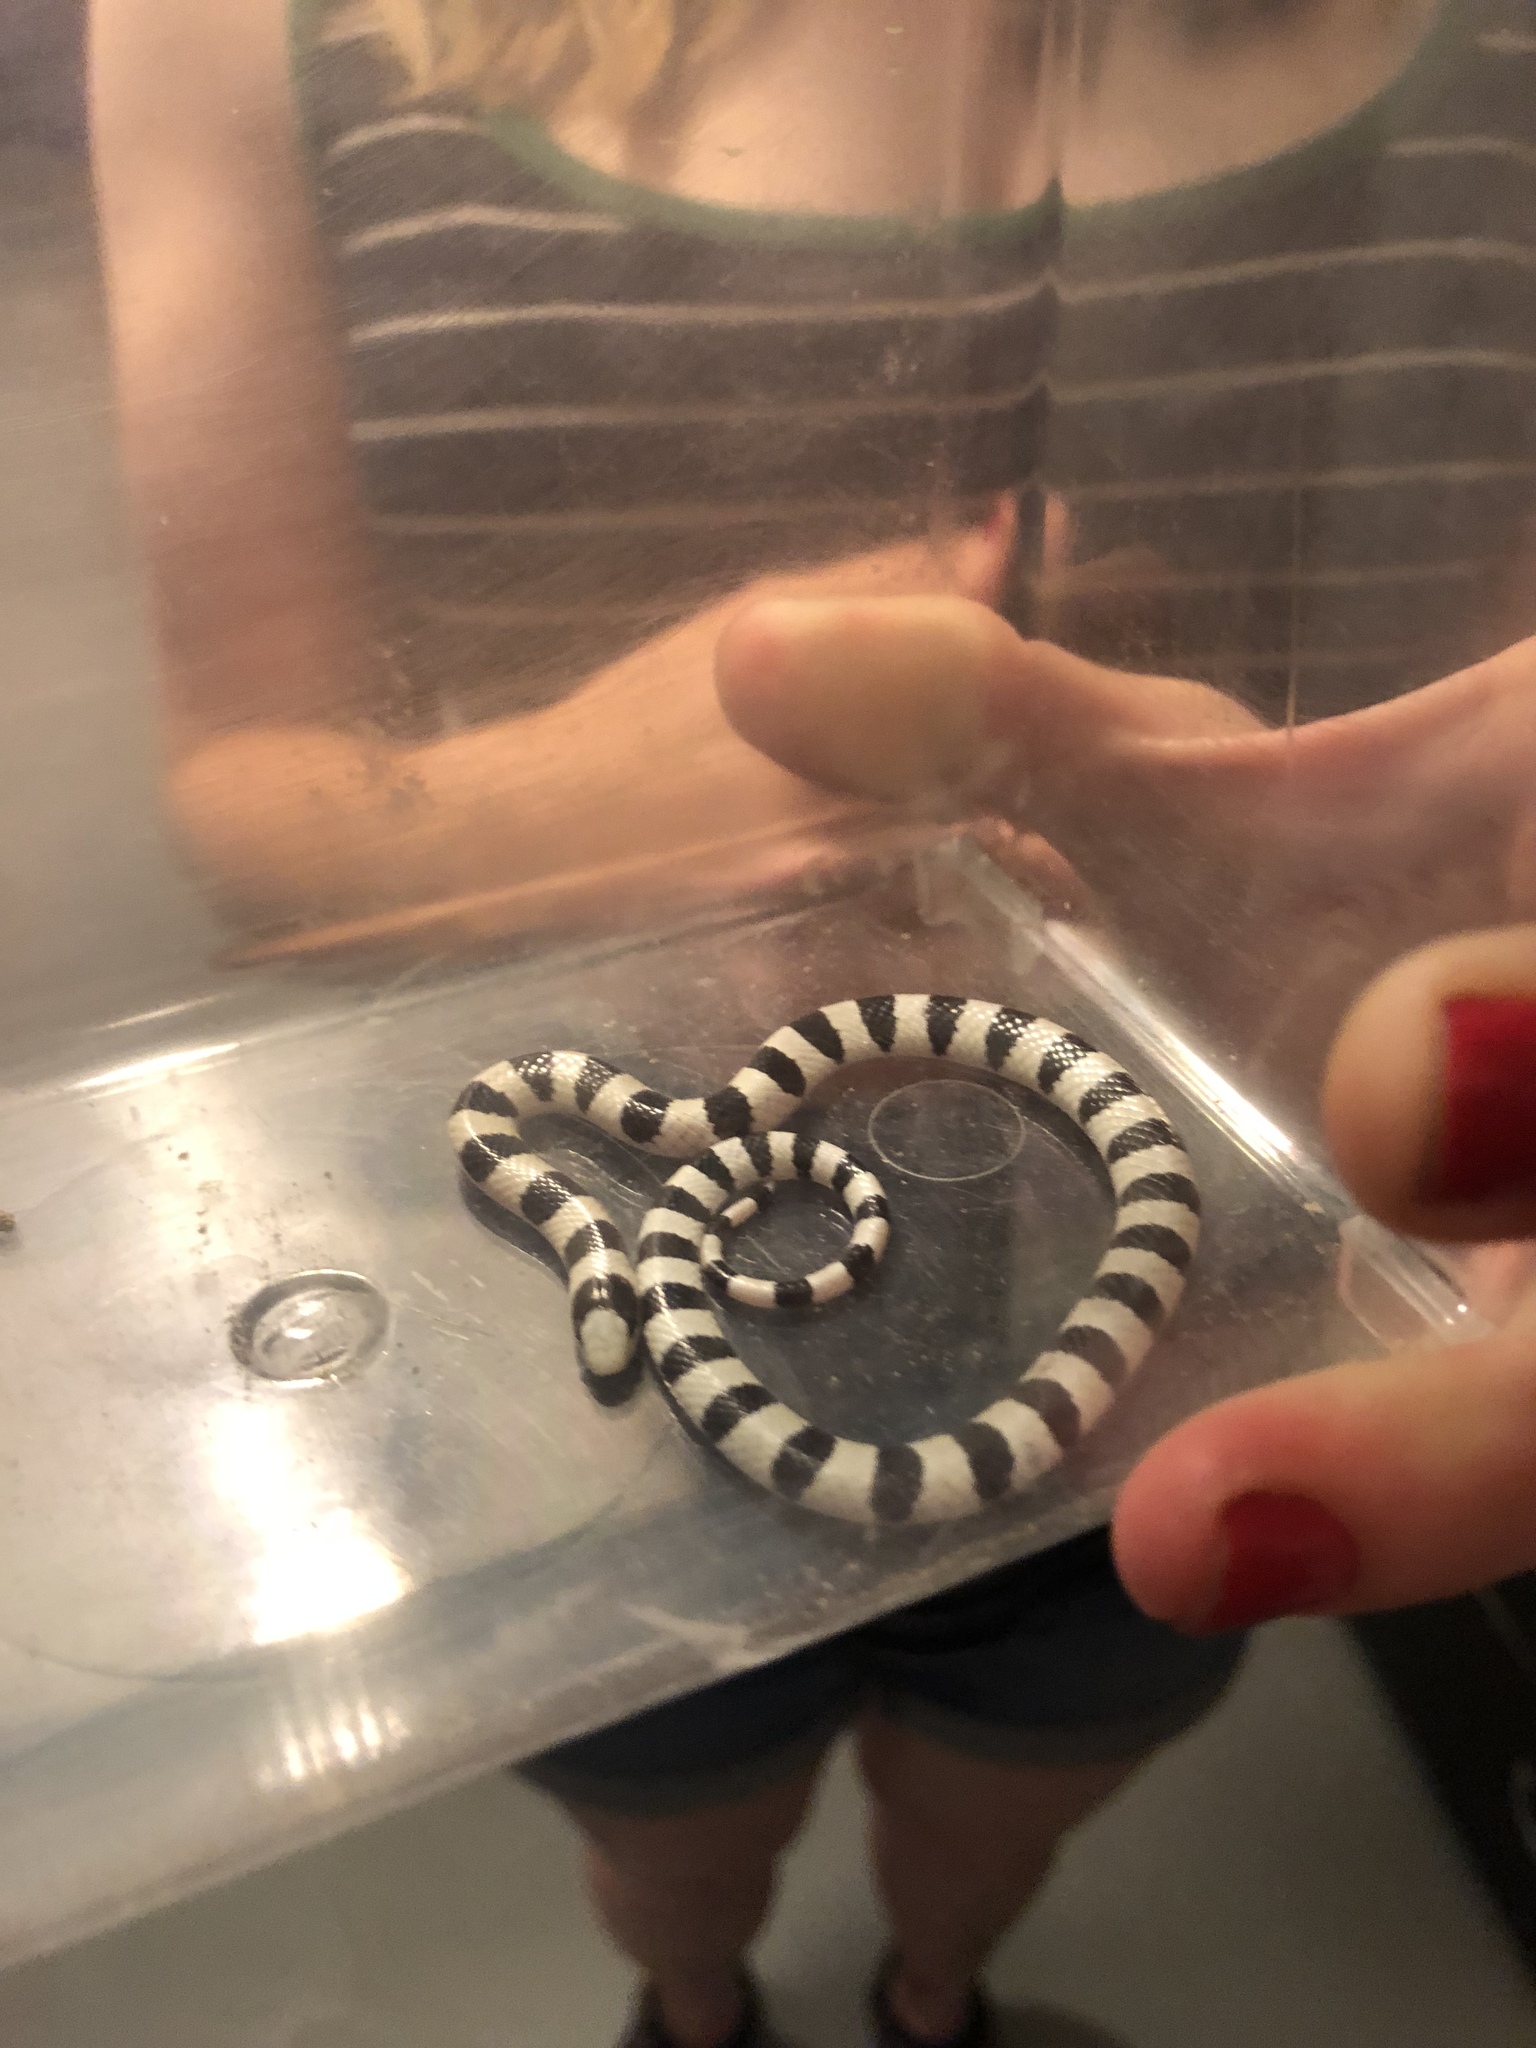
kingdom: Animalia
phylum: Chordata
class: Squamata
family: Colubridae
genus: Sonora
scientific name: Sonora occipitalis
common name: Western shovelnose snake
